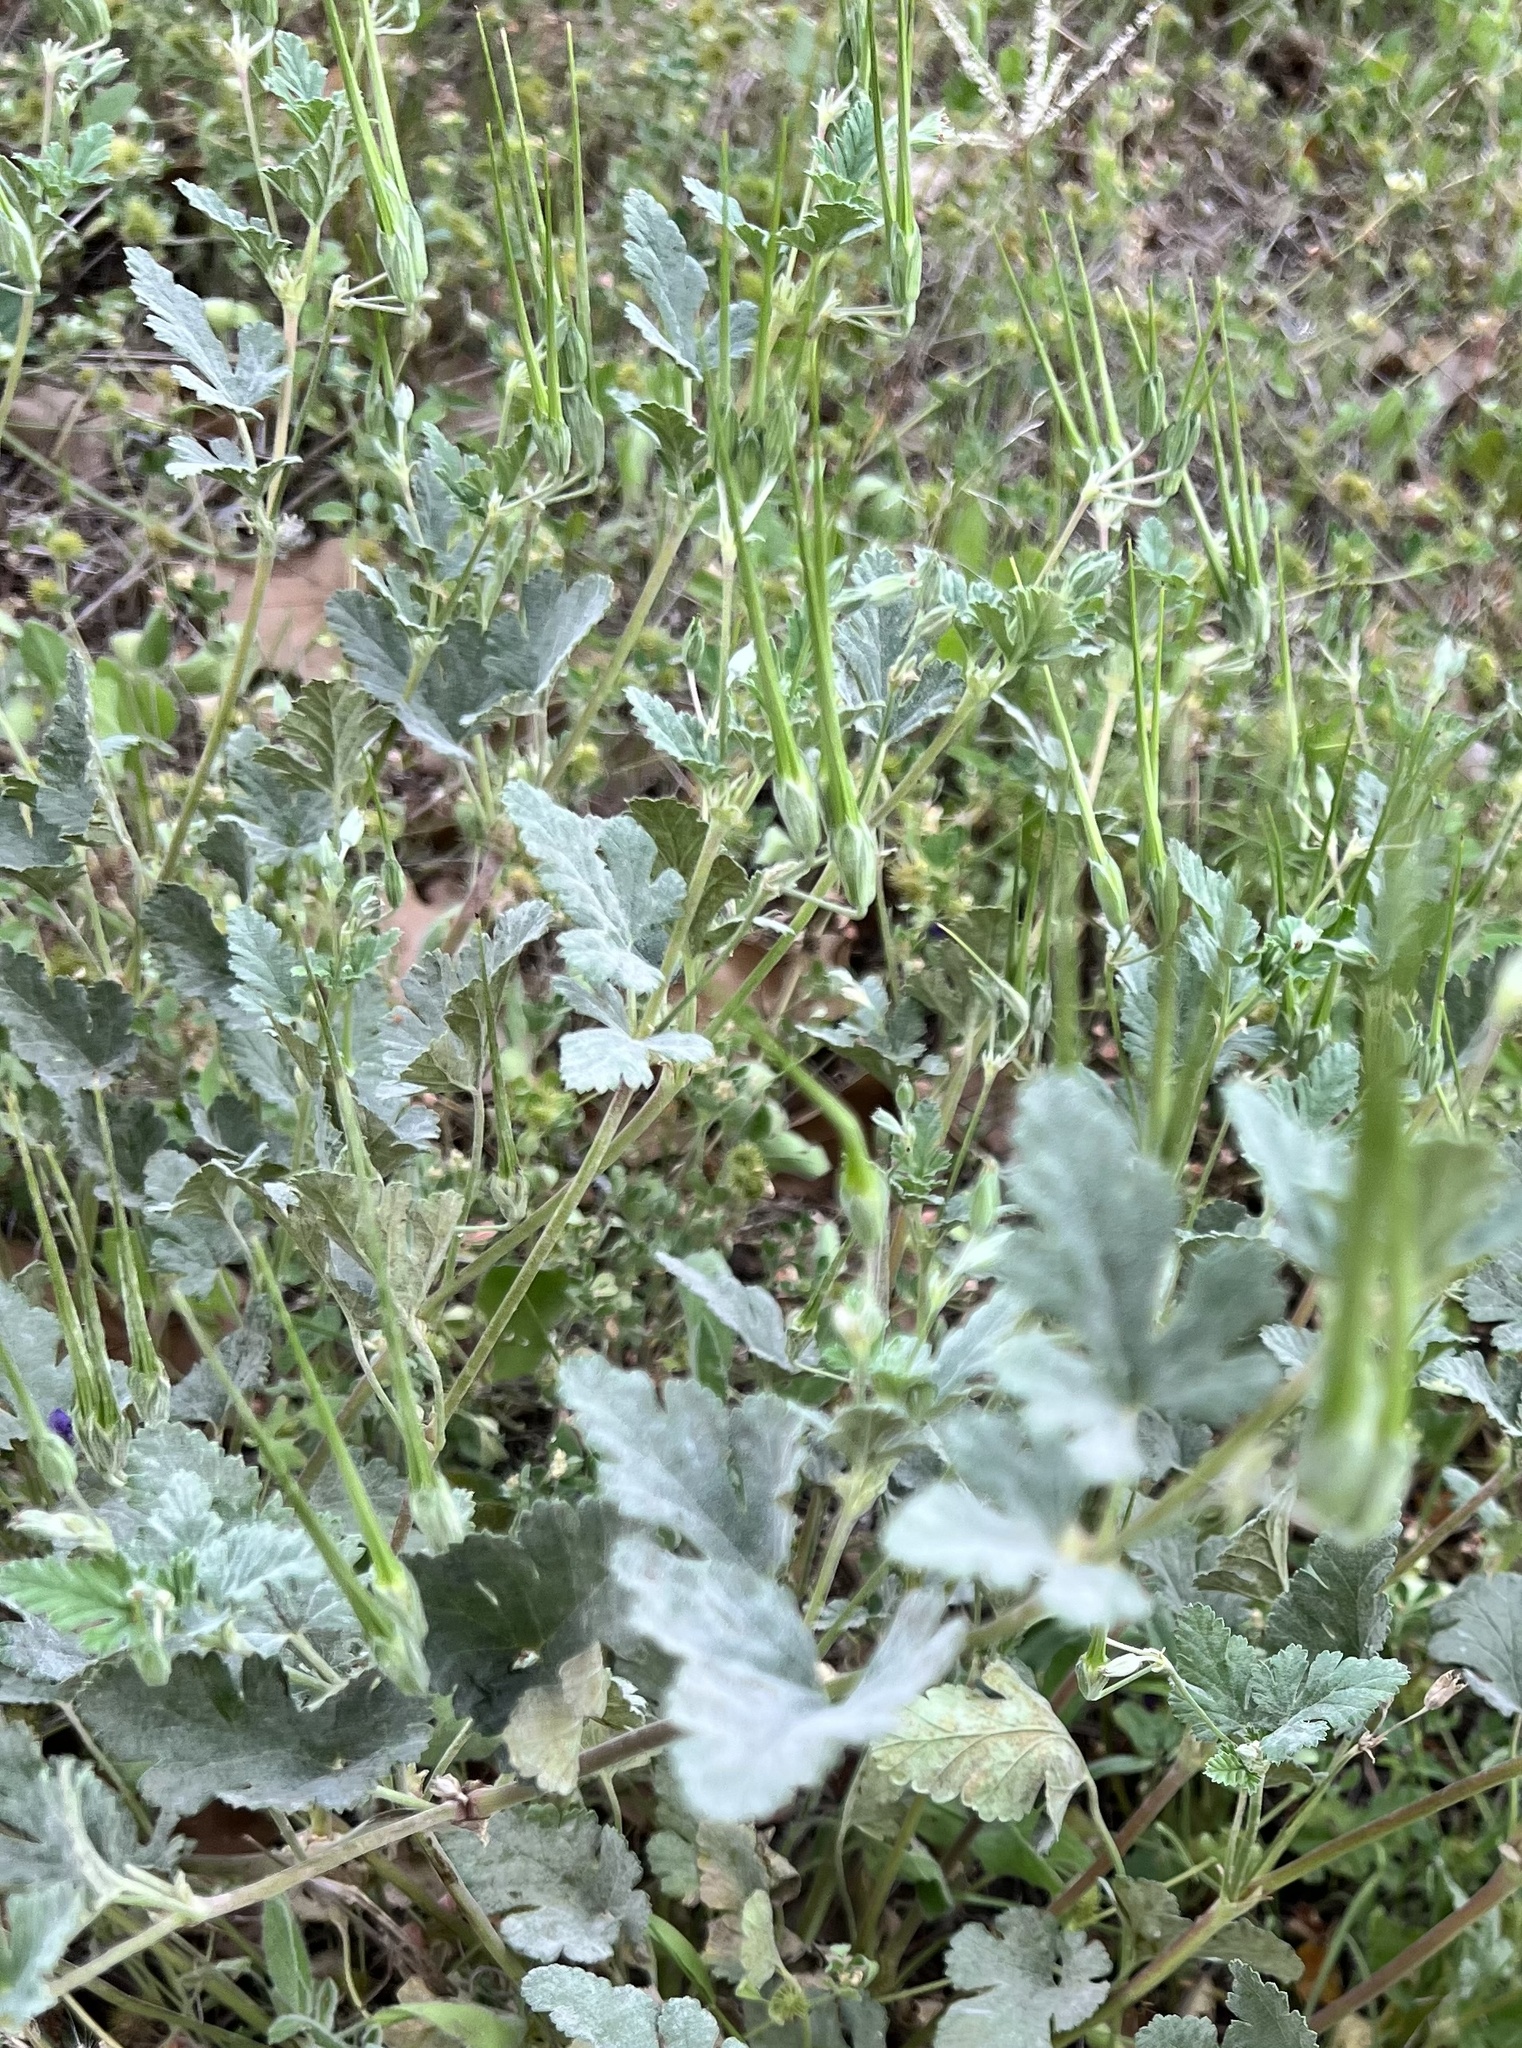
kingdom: Plantae
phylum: Tracheophyta
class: Magnoliopsida
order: Geraniales
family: Geraniaceae
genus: Erodium
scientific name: Erodium texanum
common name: Texas stork's-bill
